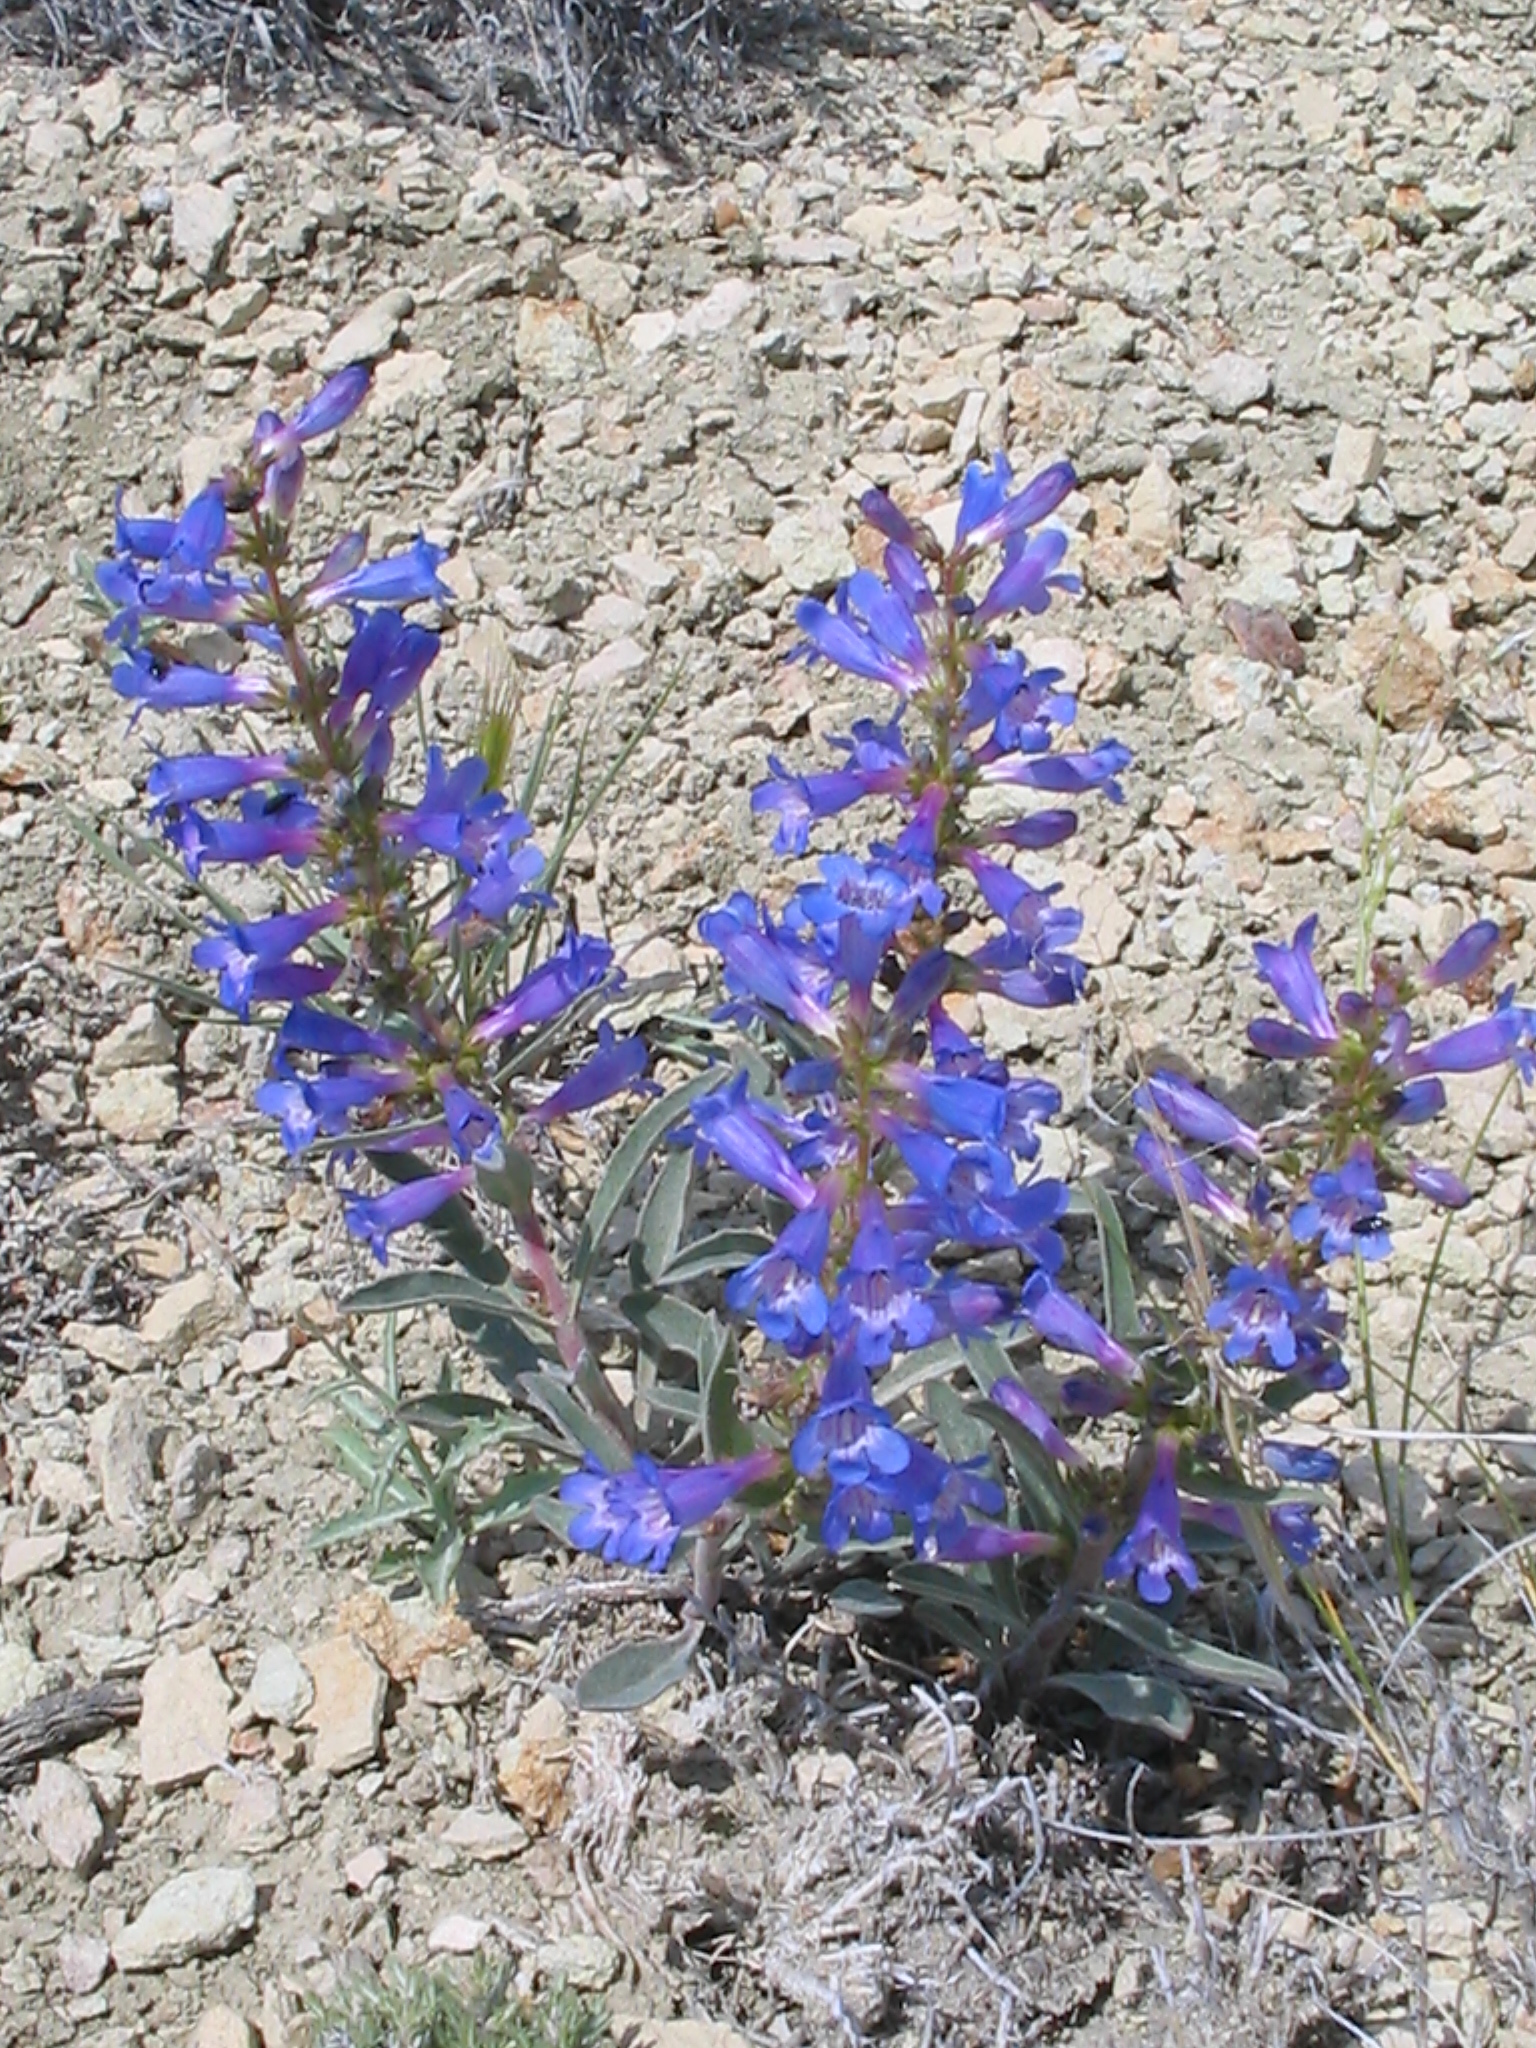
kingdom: Plantae
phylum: Tracheophyta
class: Magnoliopsida
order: Lamiales
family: Plantaginaceae
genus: Penstemon
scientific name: Penstemon arenicola
